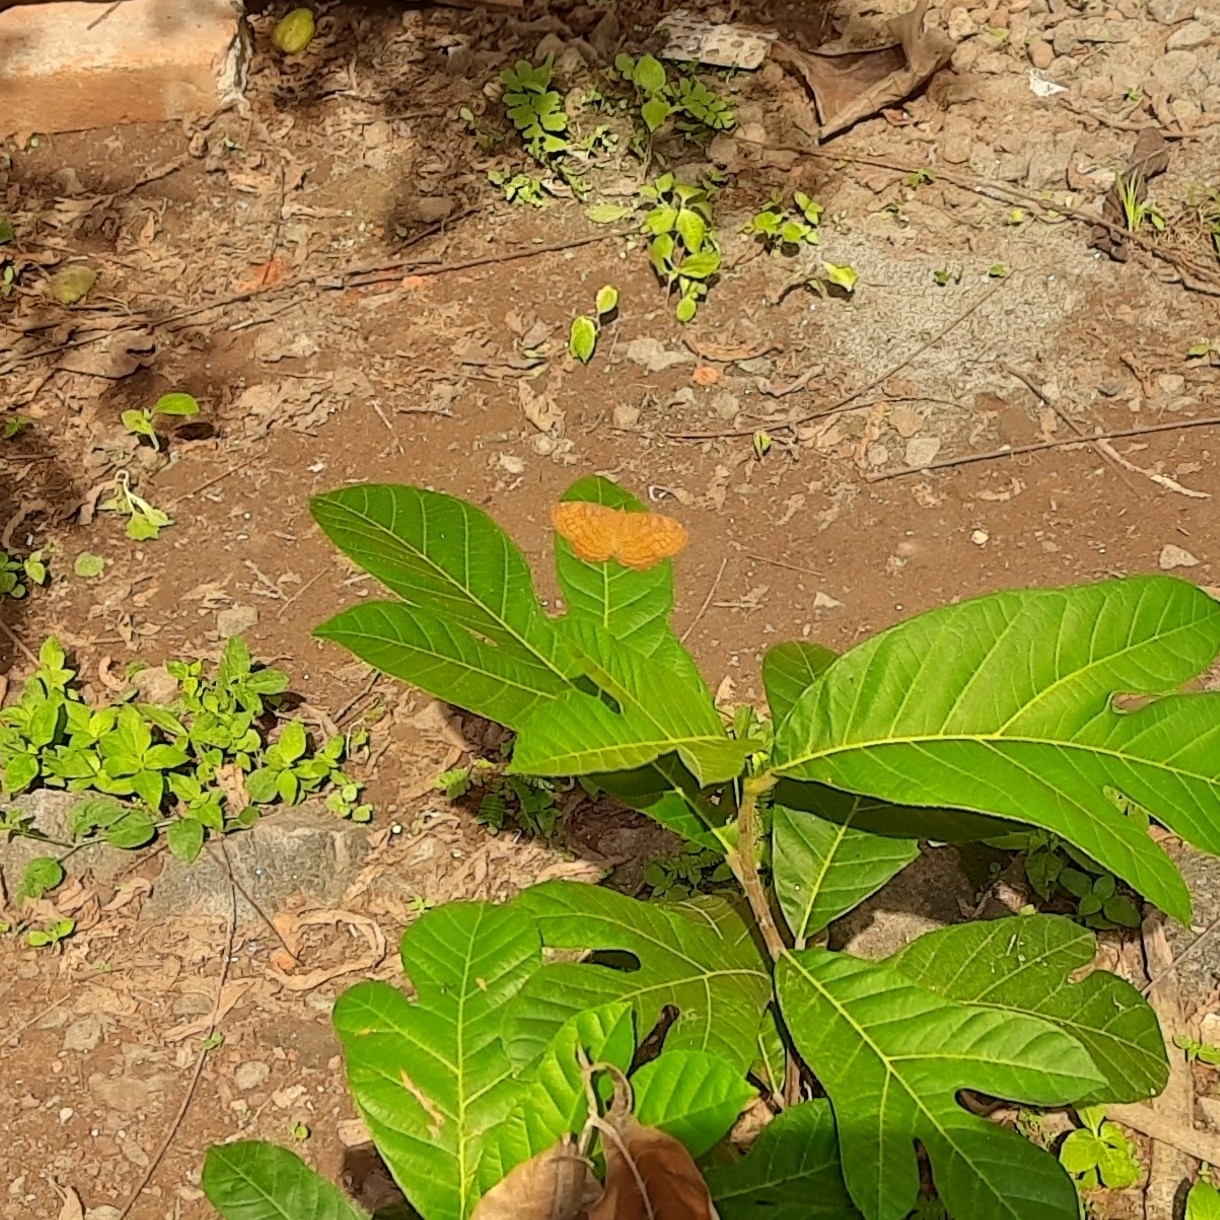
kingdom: Animalia
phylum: Arthropoda
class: Insecta
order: Lepidoptera
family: Nymphalidae
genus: Ariadne
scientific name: Ariadne merione
